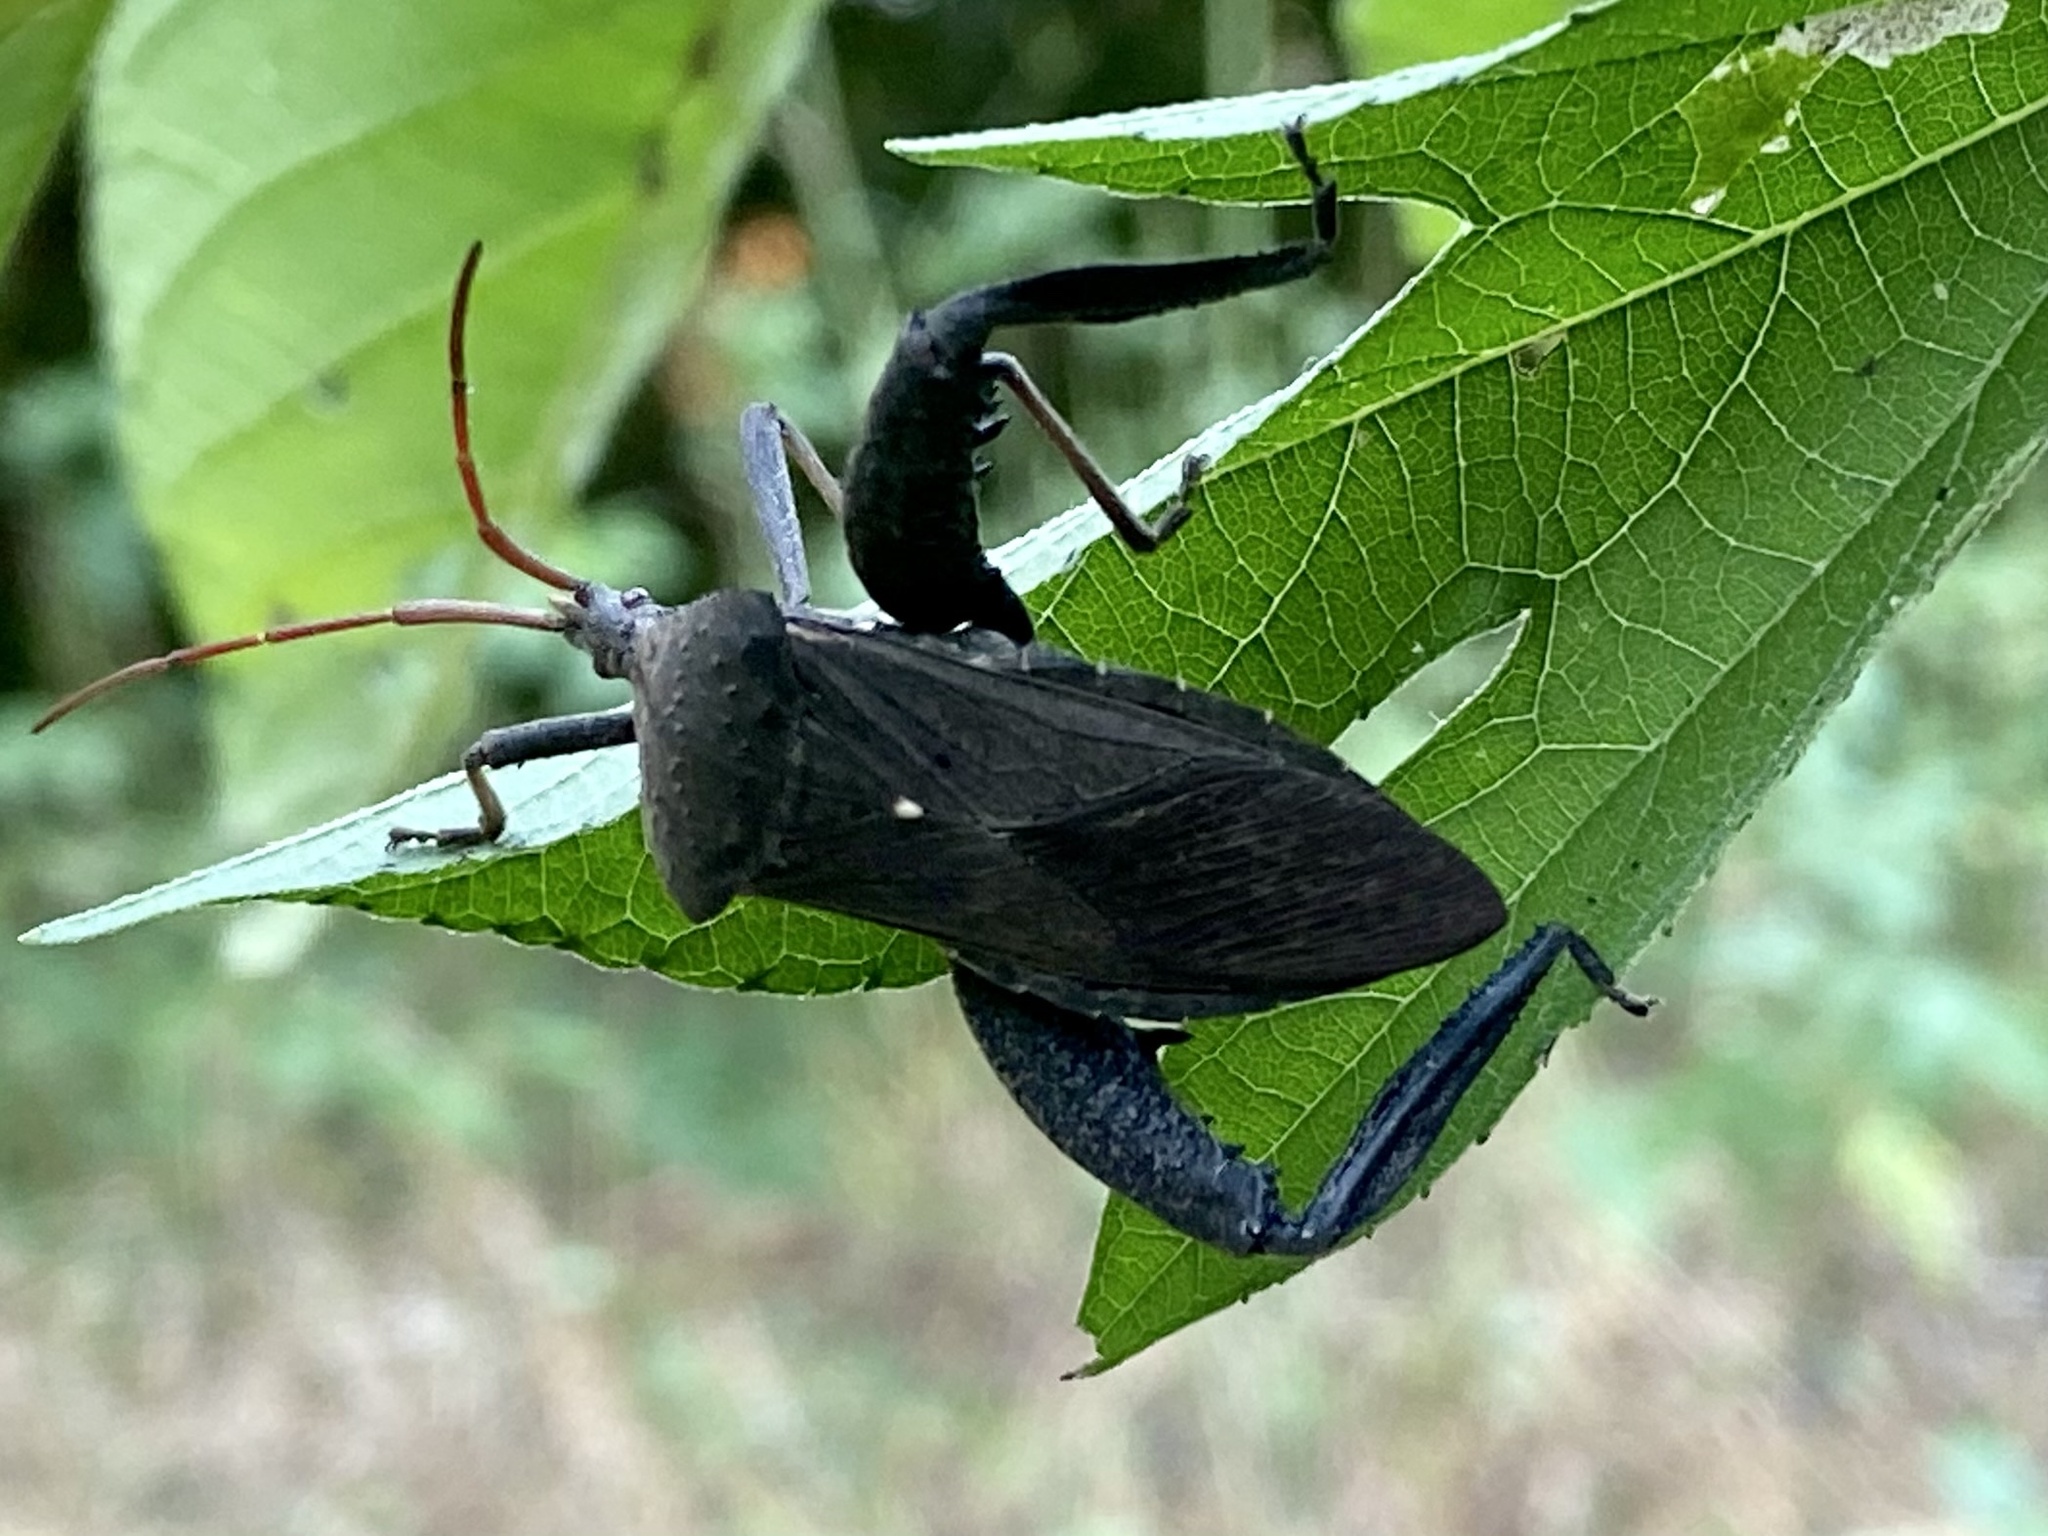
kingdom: Animalia
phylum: Arthropoda
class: Insecta
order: Hemiptera
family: Coreidae
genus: Acanthocephala
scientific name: Acanthocephala femorata
